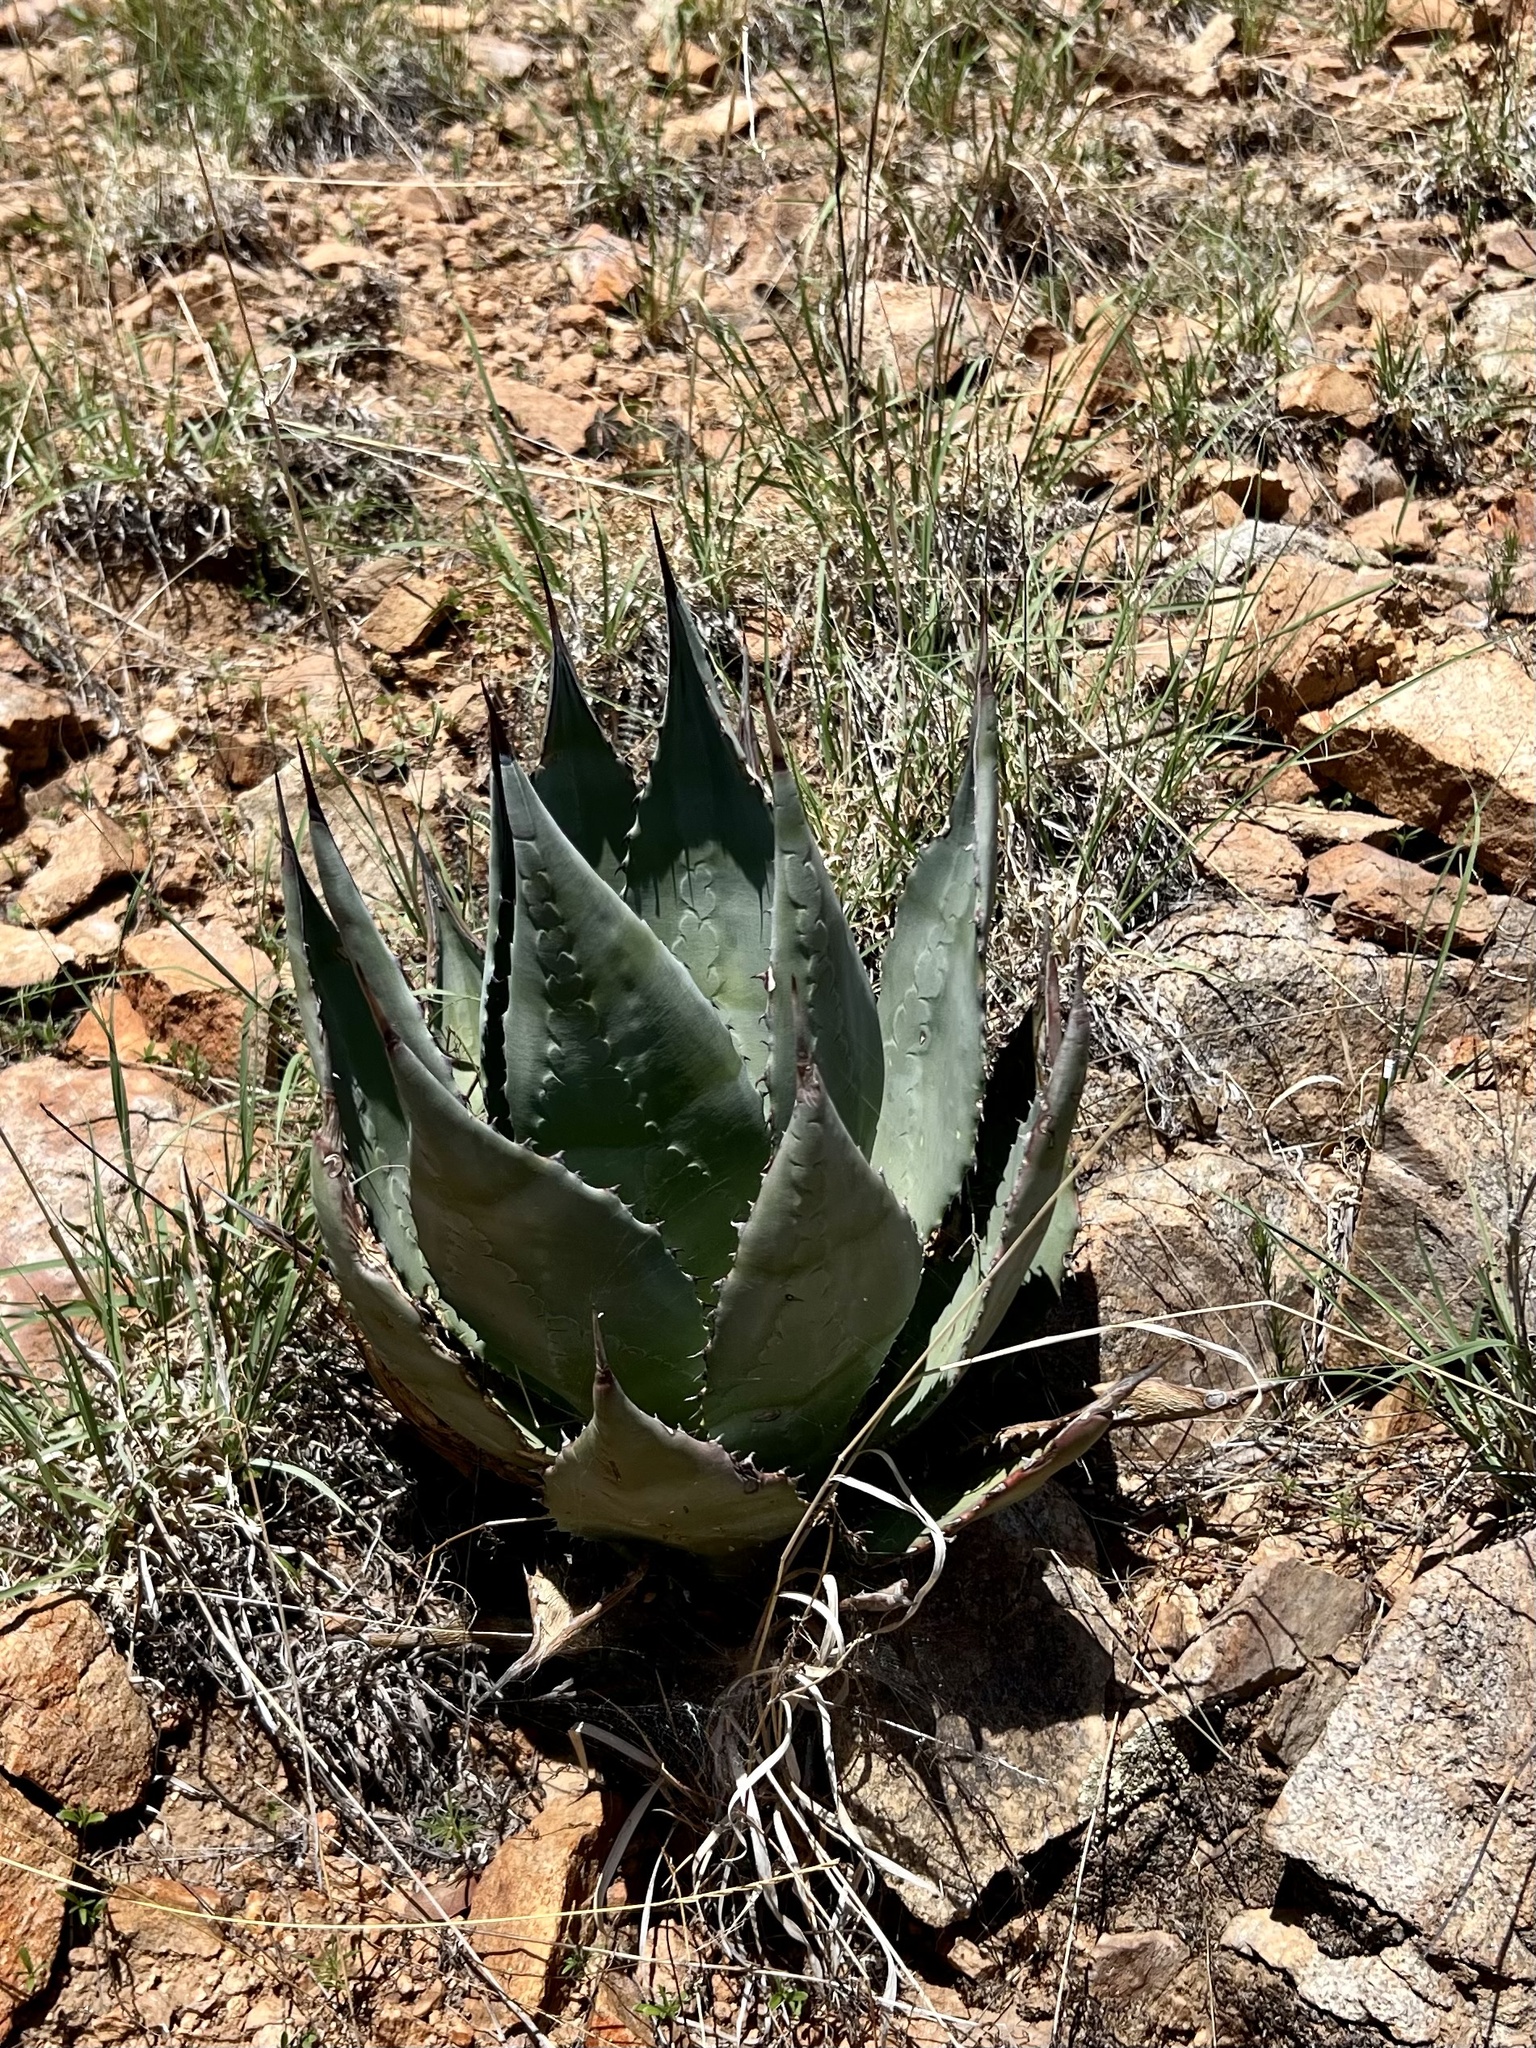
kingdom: Plantae
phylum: Tracheophyta
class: Liliopsida
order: Asparagales
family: Asparagaceae
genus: Agave
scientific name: Agave parryi
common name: Parry's agave
